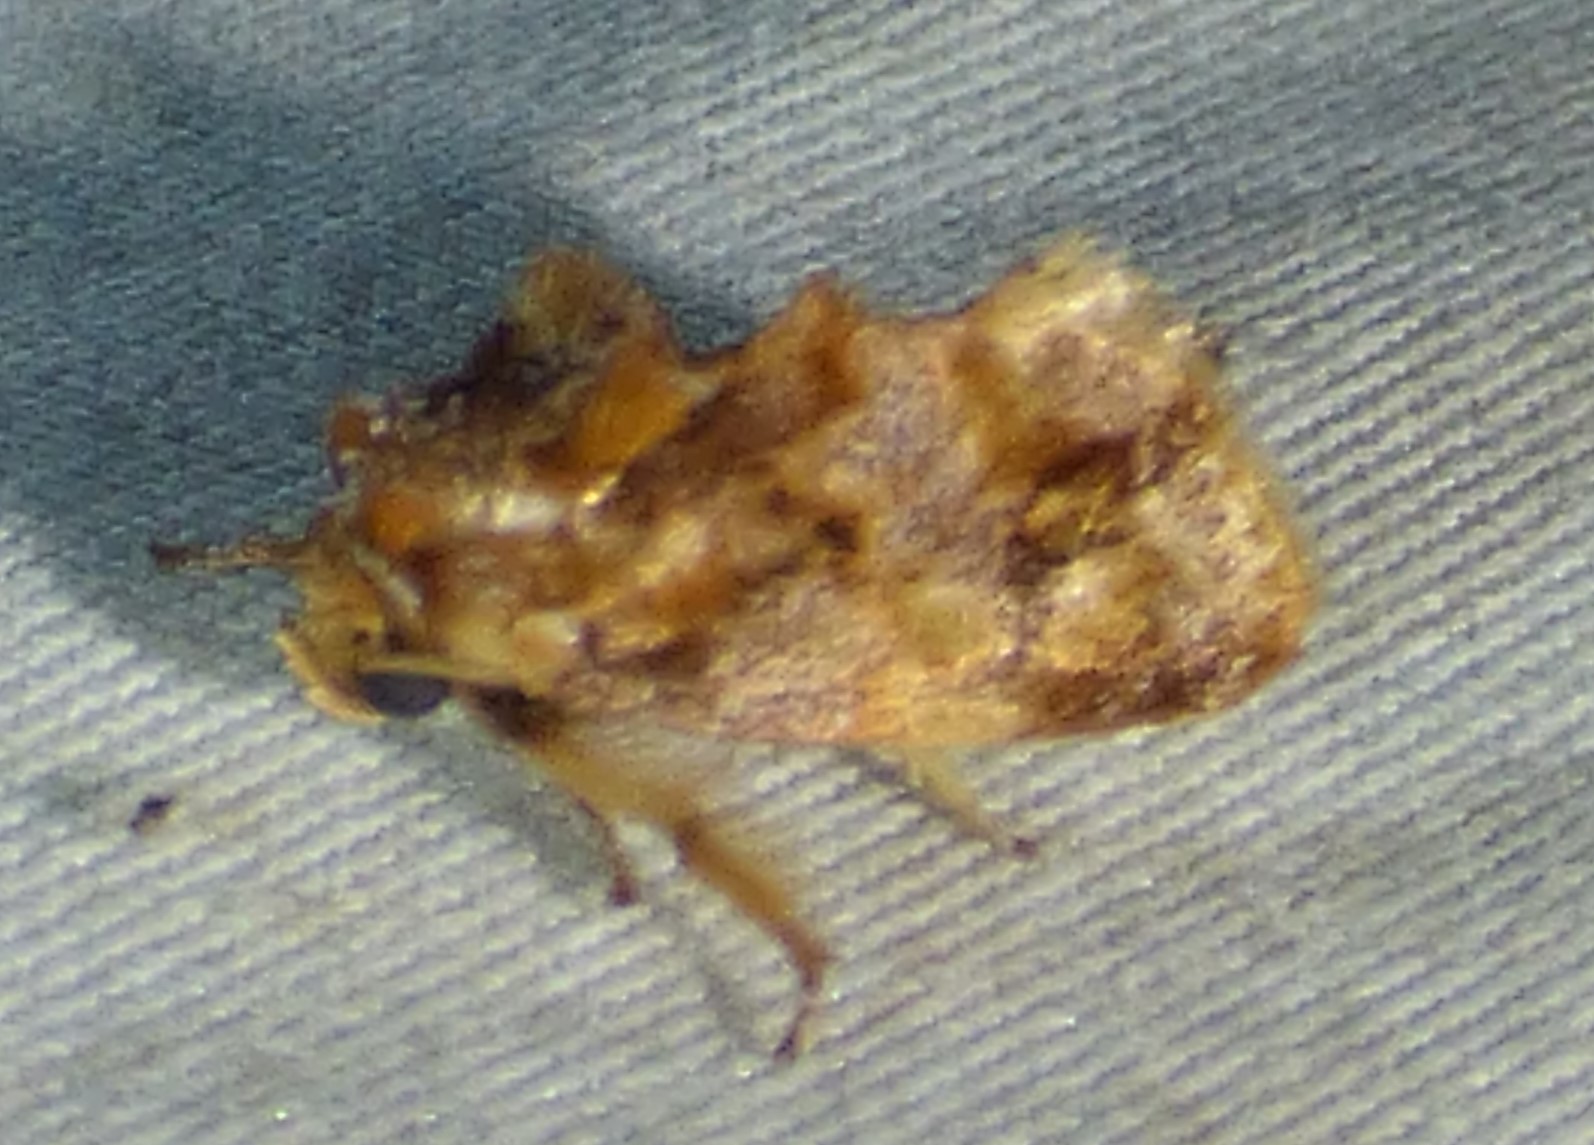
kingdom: Animalia
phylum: Arthropoda
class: Insecta
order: Lepidoptera
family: Limacodidae
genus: Isochaetes
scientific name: Isochaetes beutenmuelleri
